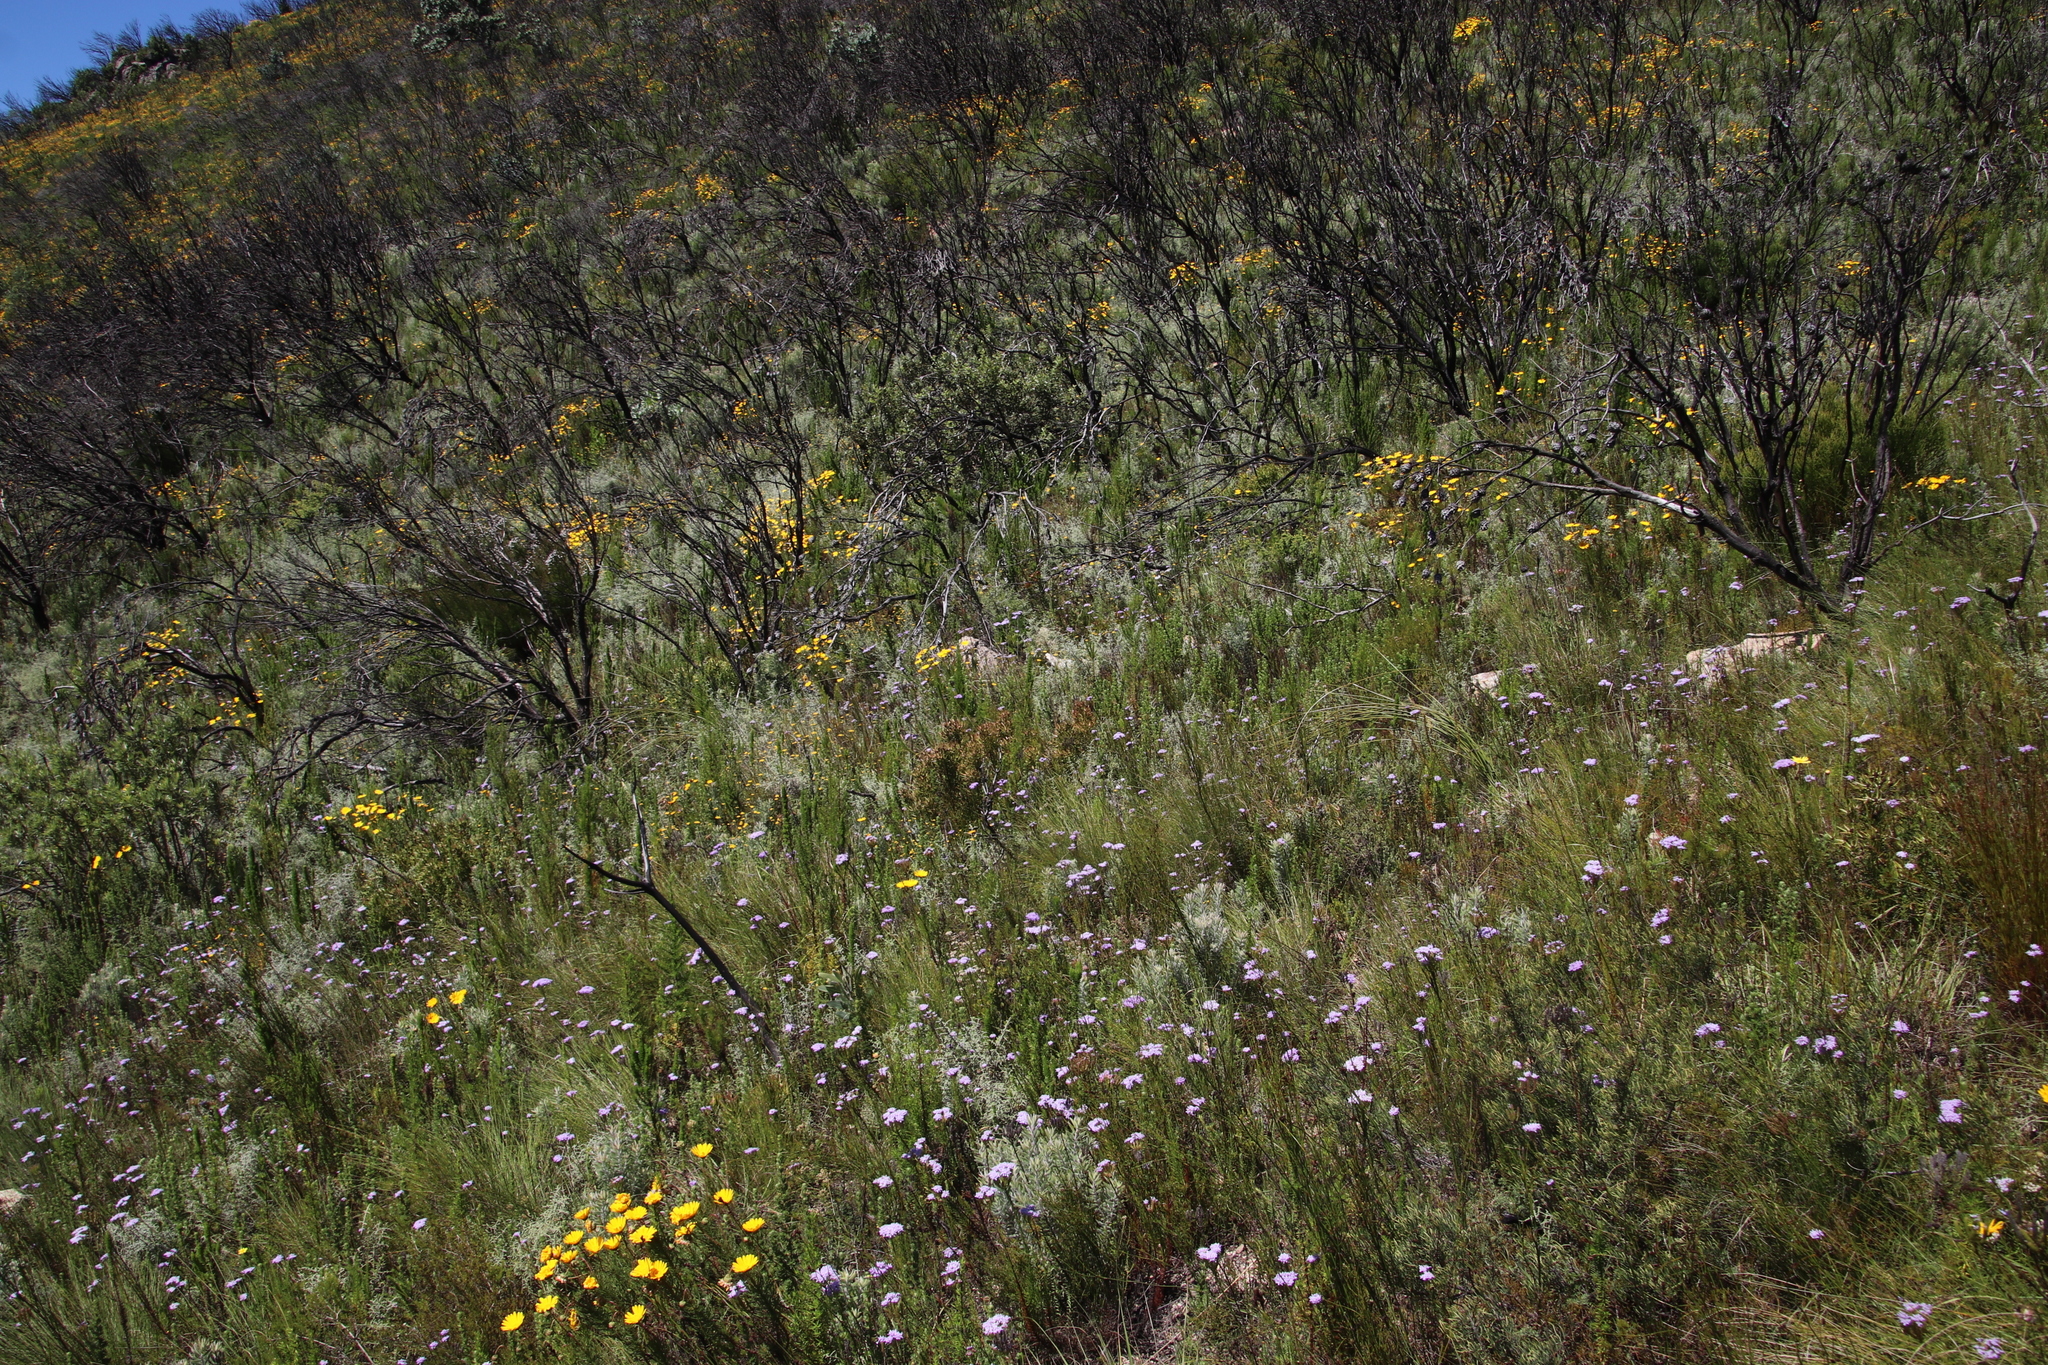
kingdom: Plantae
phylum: Tracheophyta
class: Magnoliopsida
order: Proteales
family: Proteaceae
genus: Leucadendron
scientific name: Leucadendron spissifolium
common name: Spear-leaf conebush
